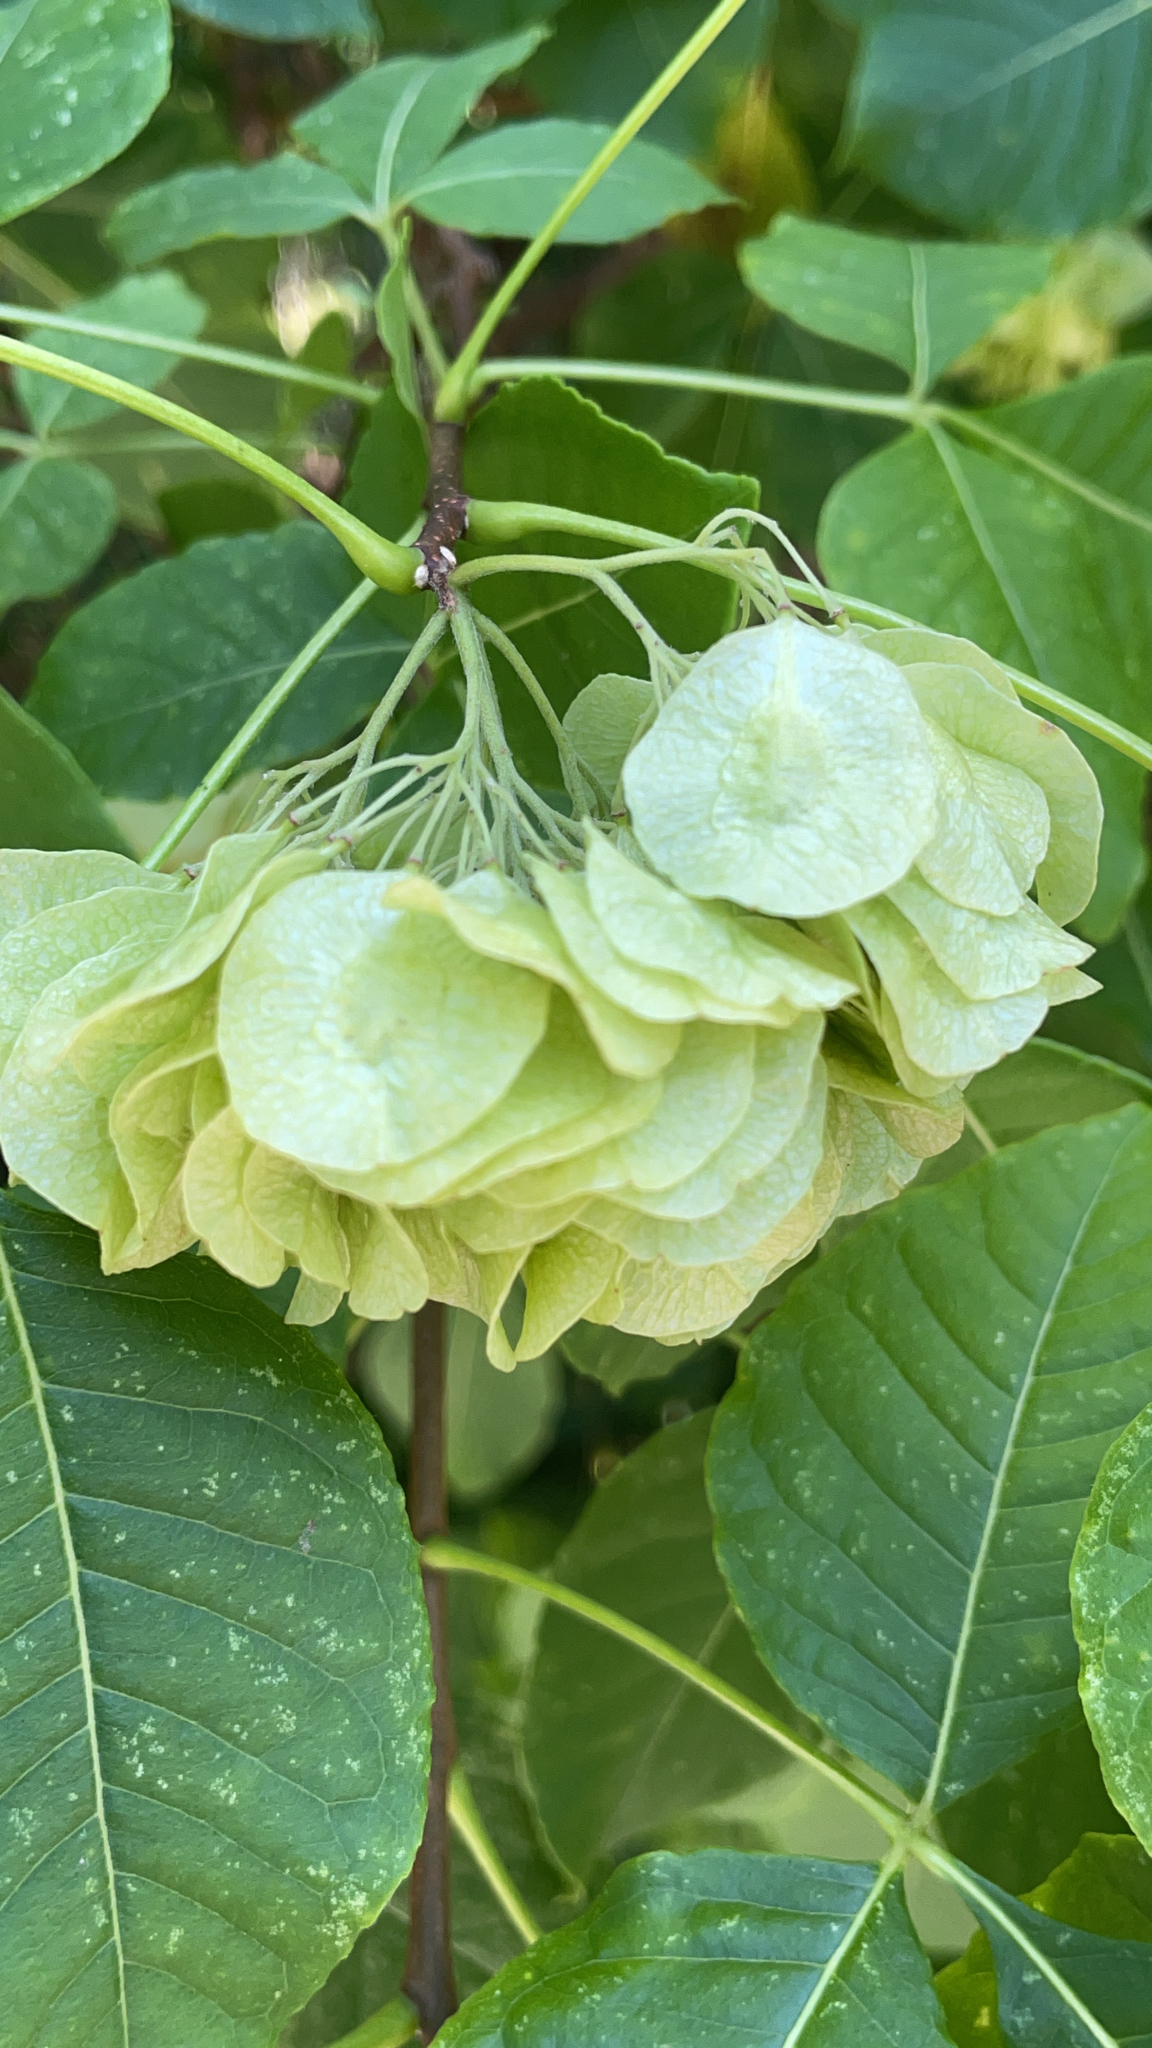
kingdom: Plantae
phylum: Tracheophyta
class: Magnoliopsida
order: Sapindales
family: Rutaceae
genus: Ptelea
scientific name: Ptelea trifoliata
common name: Common hop-tree
